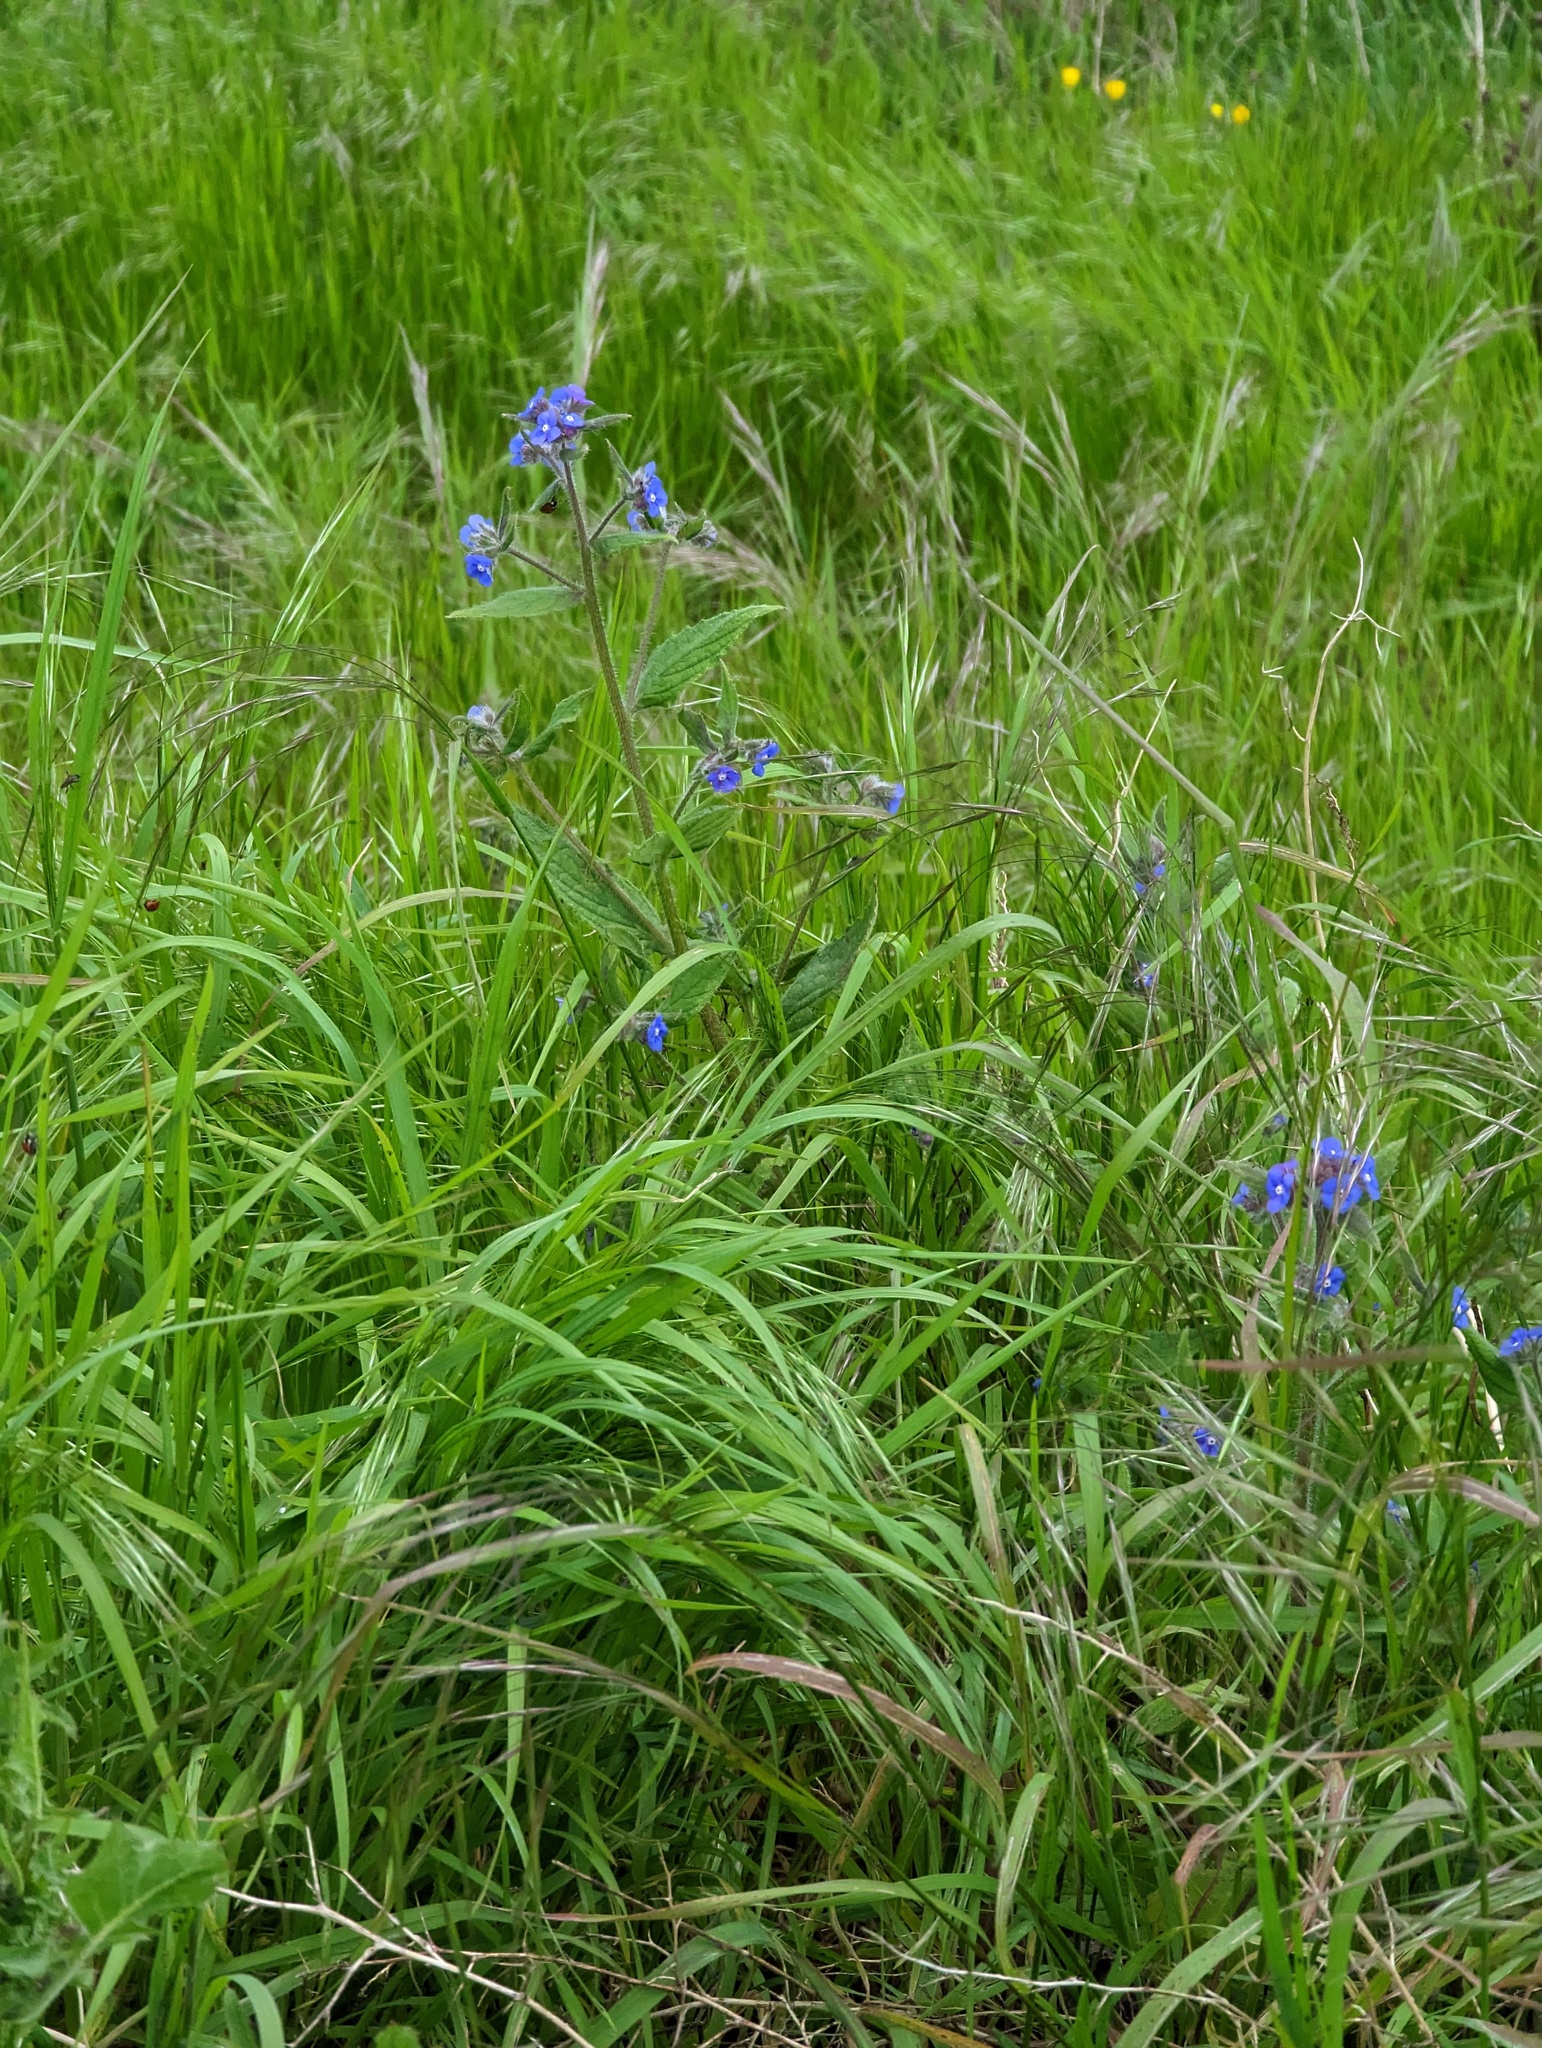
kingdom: Plantae
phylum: Tracheophyta
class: Magnoliopsida
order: Boraginales
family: Boraginaceae
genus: Pentaglottis
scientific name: Pentaglottis sempervirens
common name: Green alkanet
